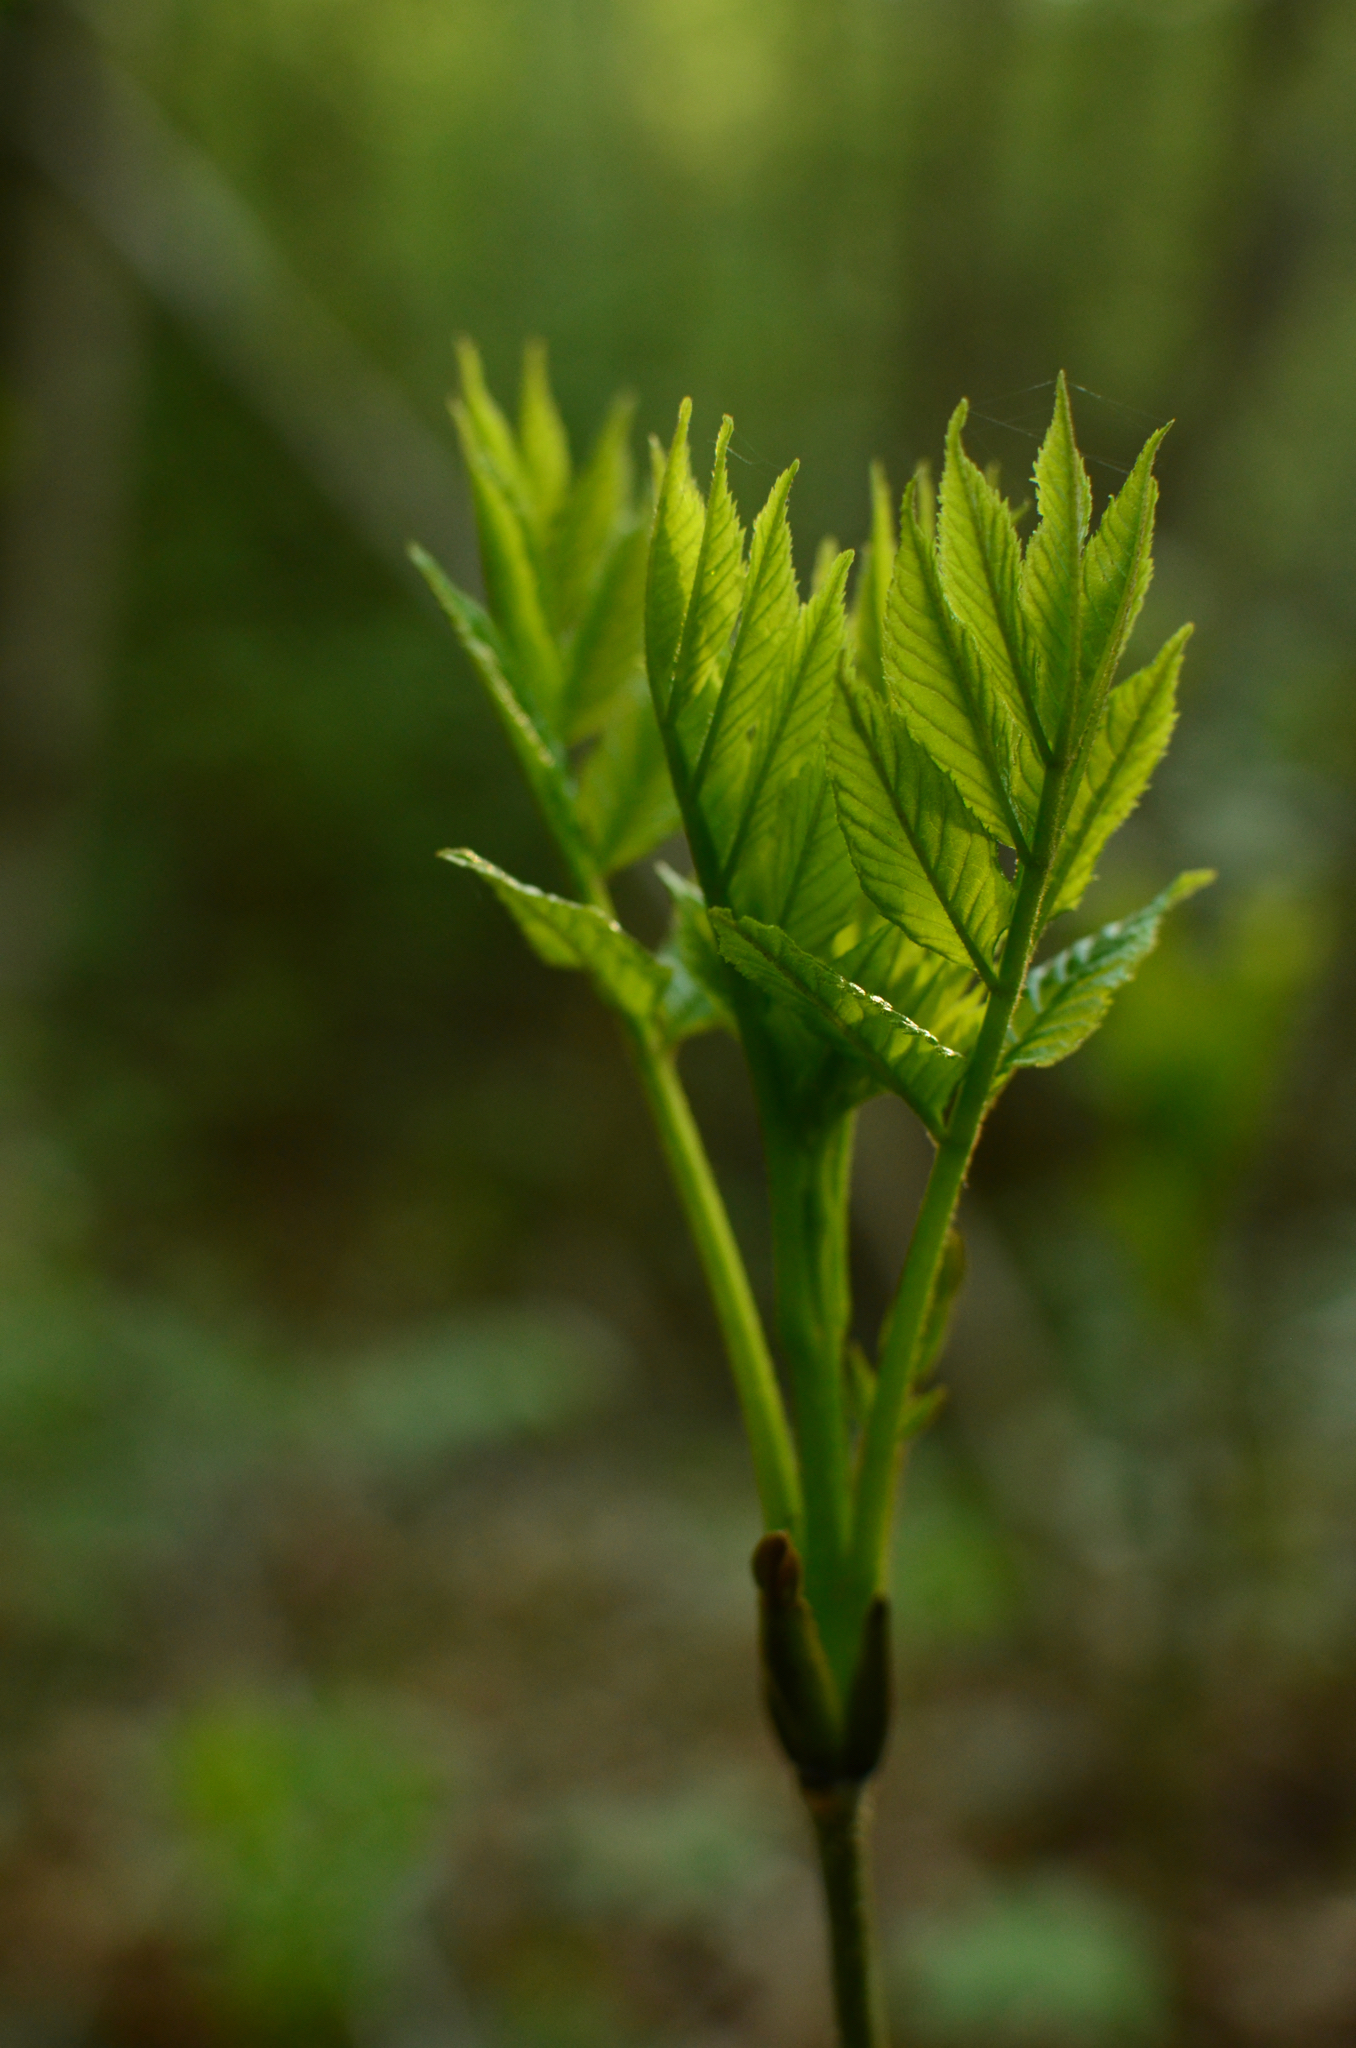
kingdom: Plantae
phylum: Tracheophyta
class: Magnoliopsida
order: Lamiales
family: Oleaceae
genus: Fraxinus
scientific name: Fraxinus excelsior
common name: European ash
